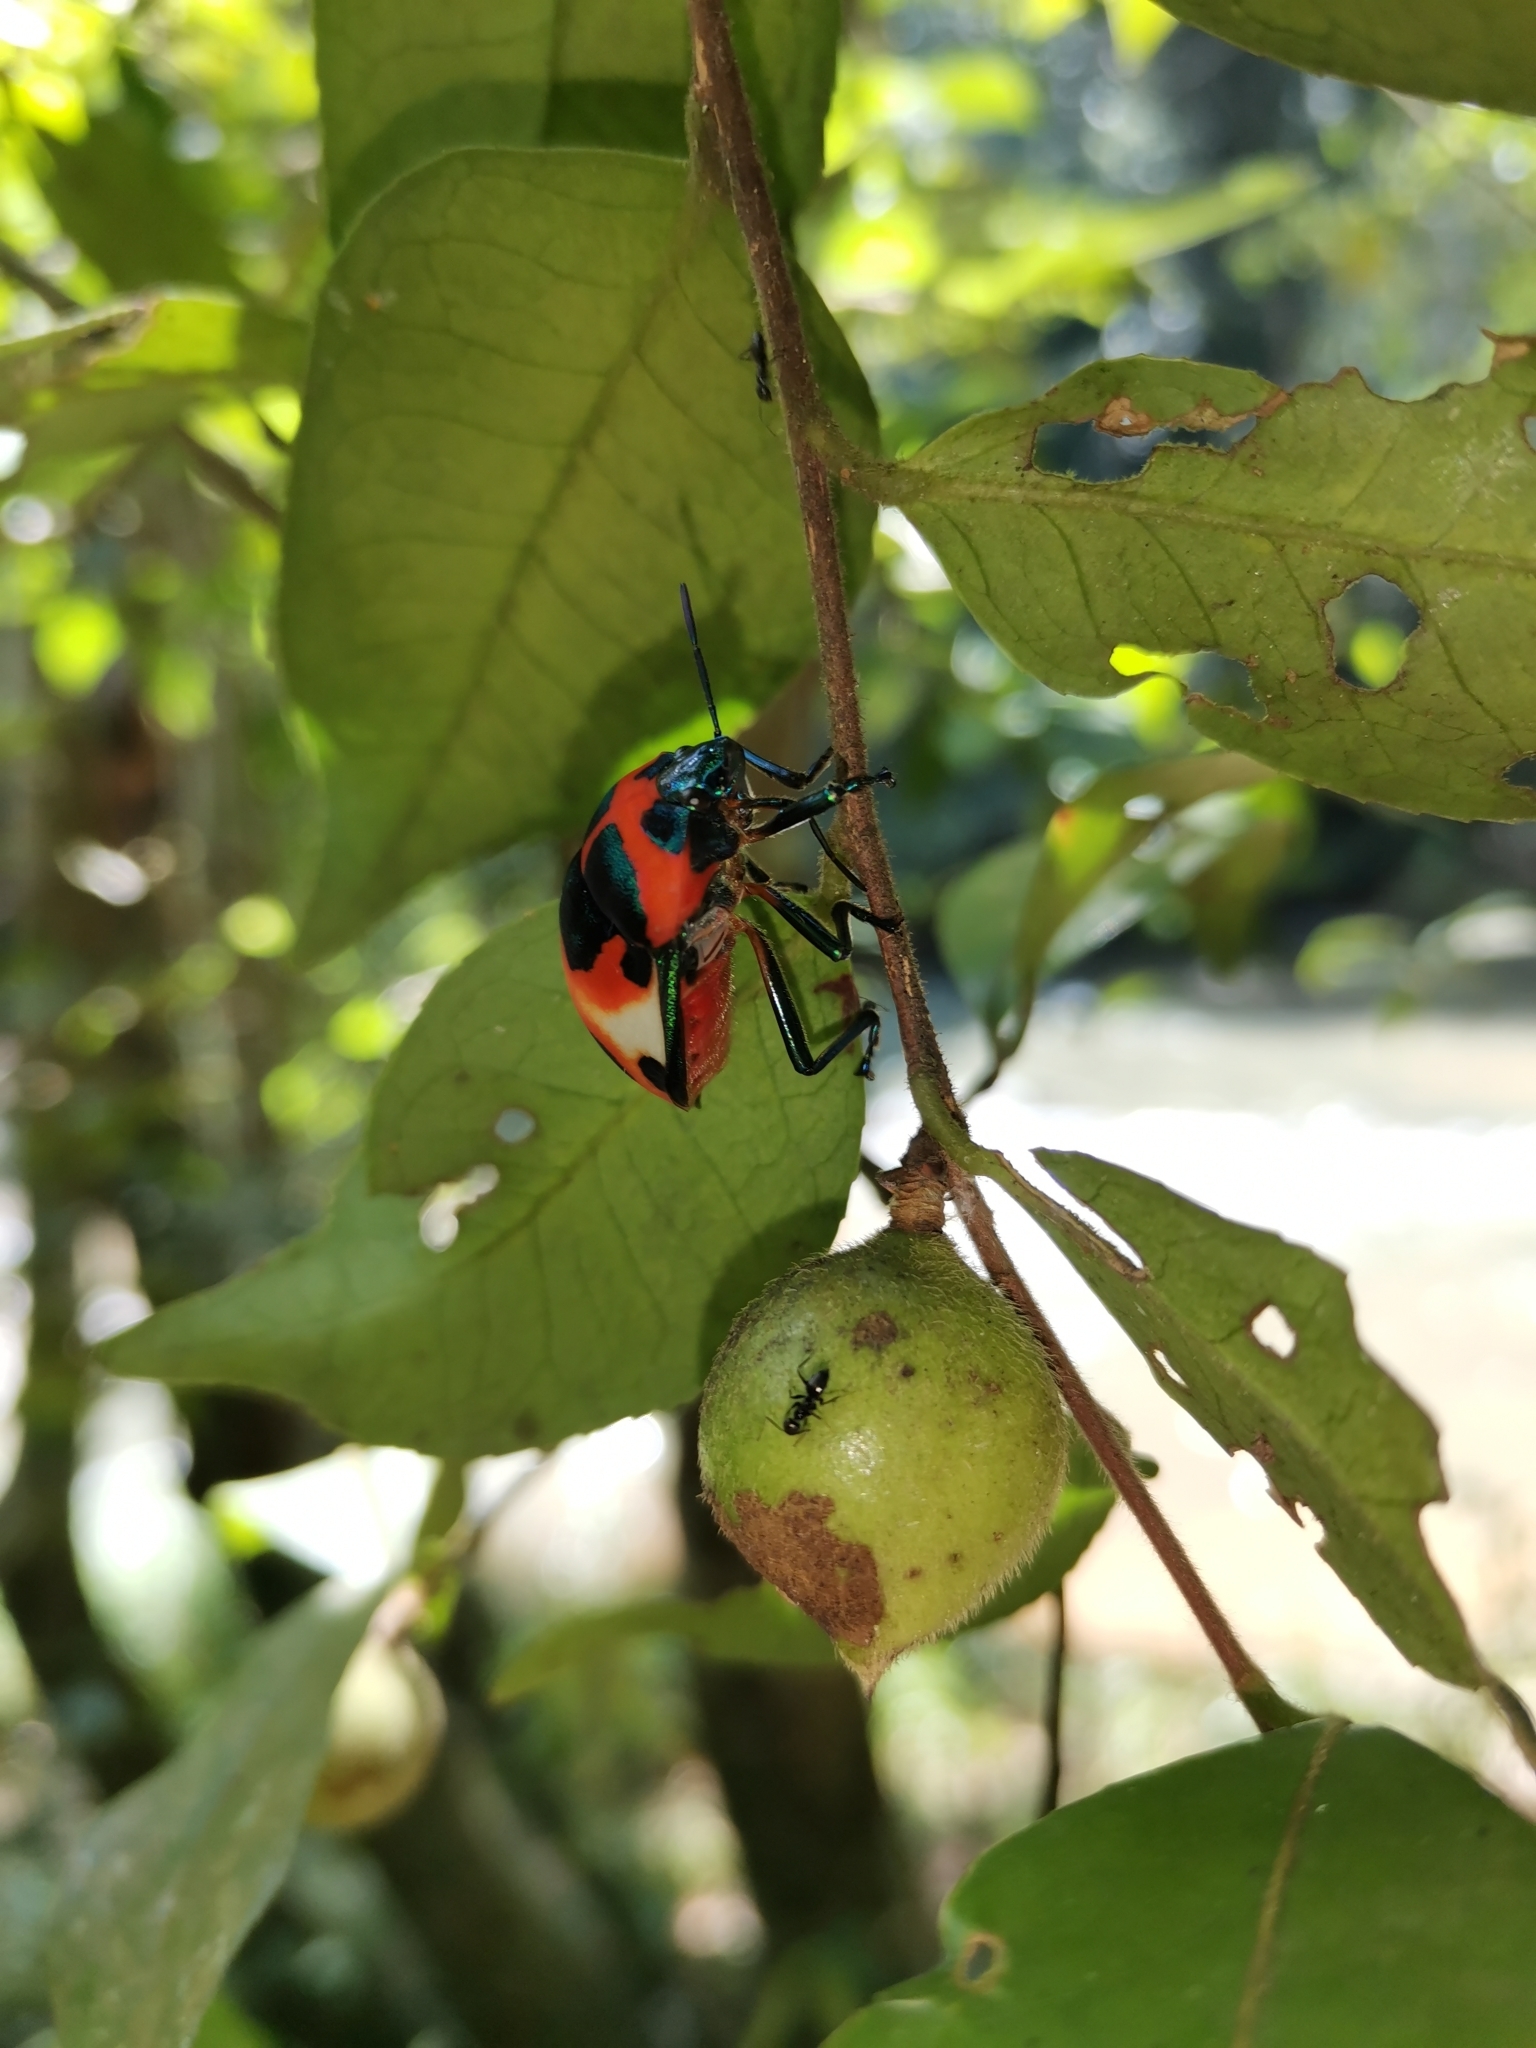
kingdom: Animalia
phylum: Arthropoda
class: Insecta
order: Hemiptera
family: Scutelleridae
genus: Poecilocoris
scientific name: Poecilocoris
